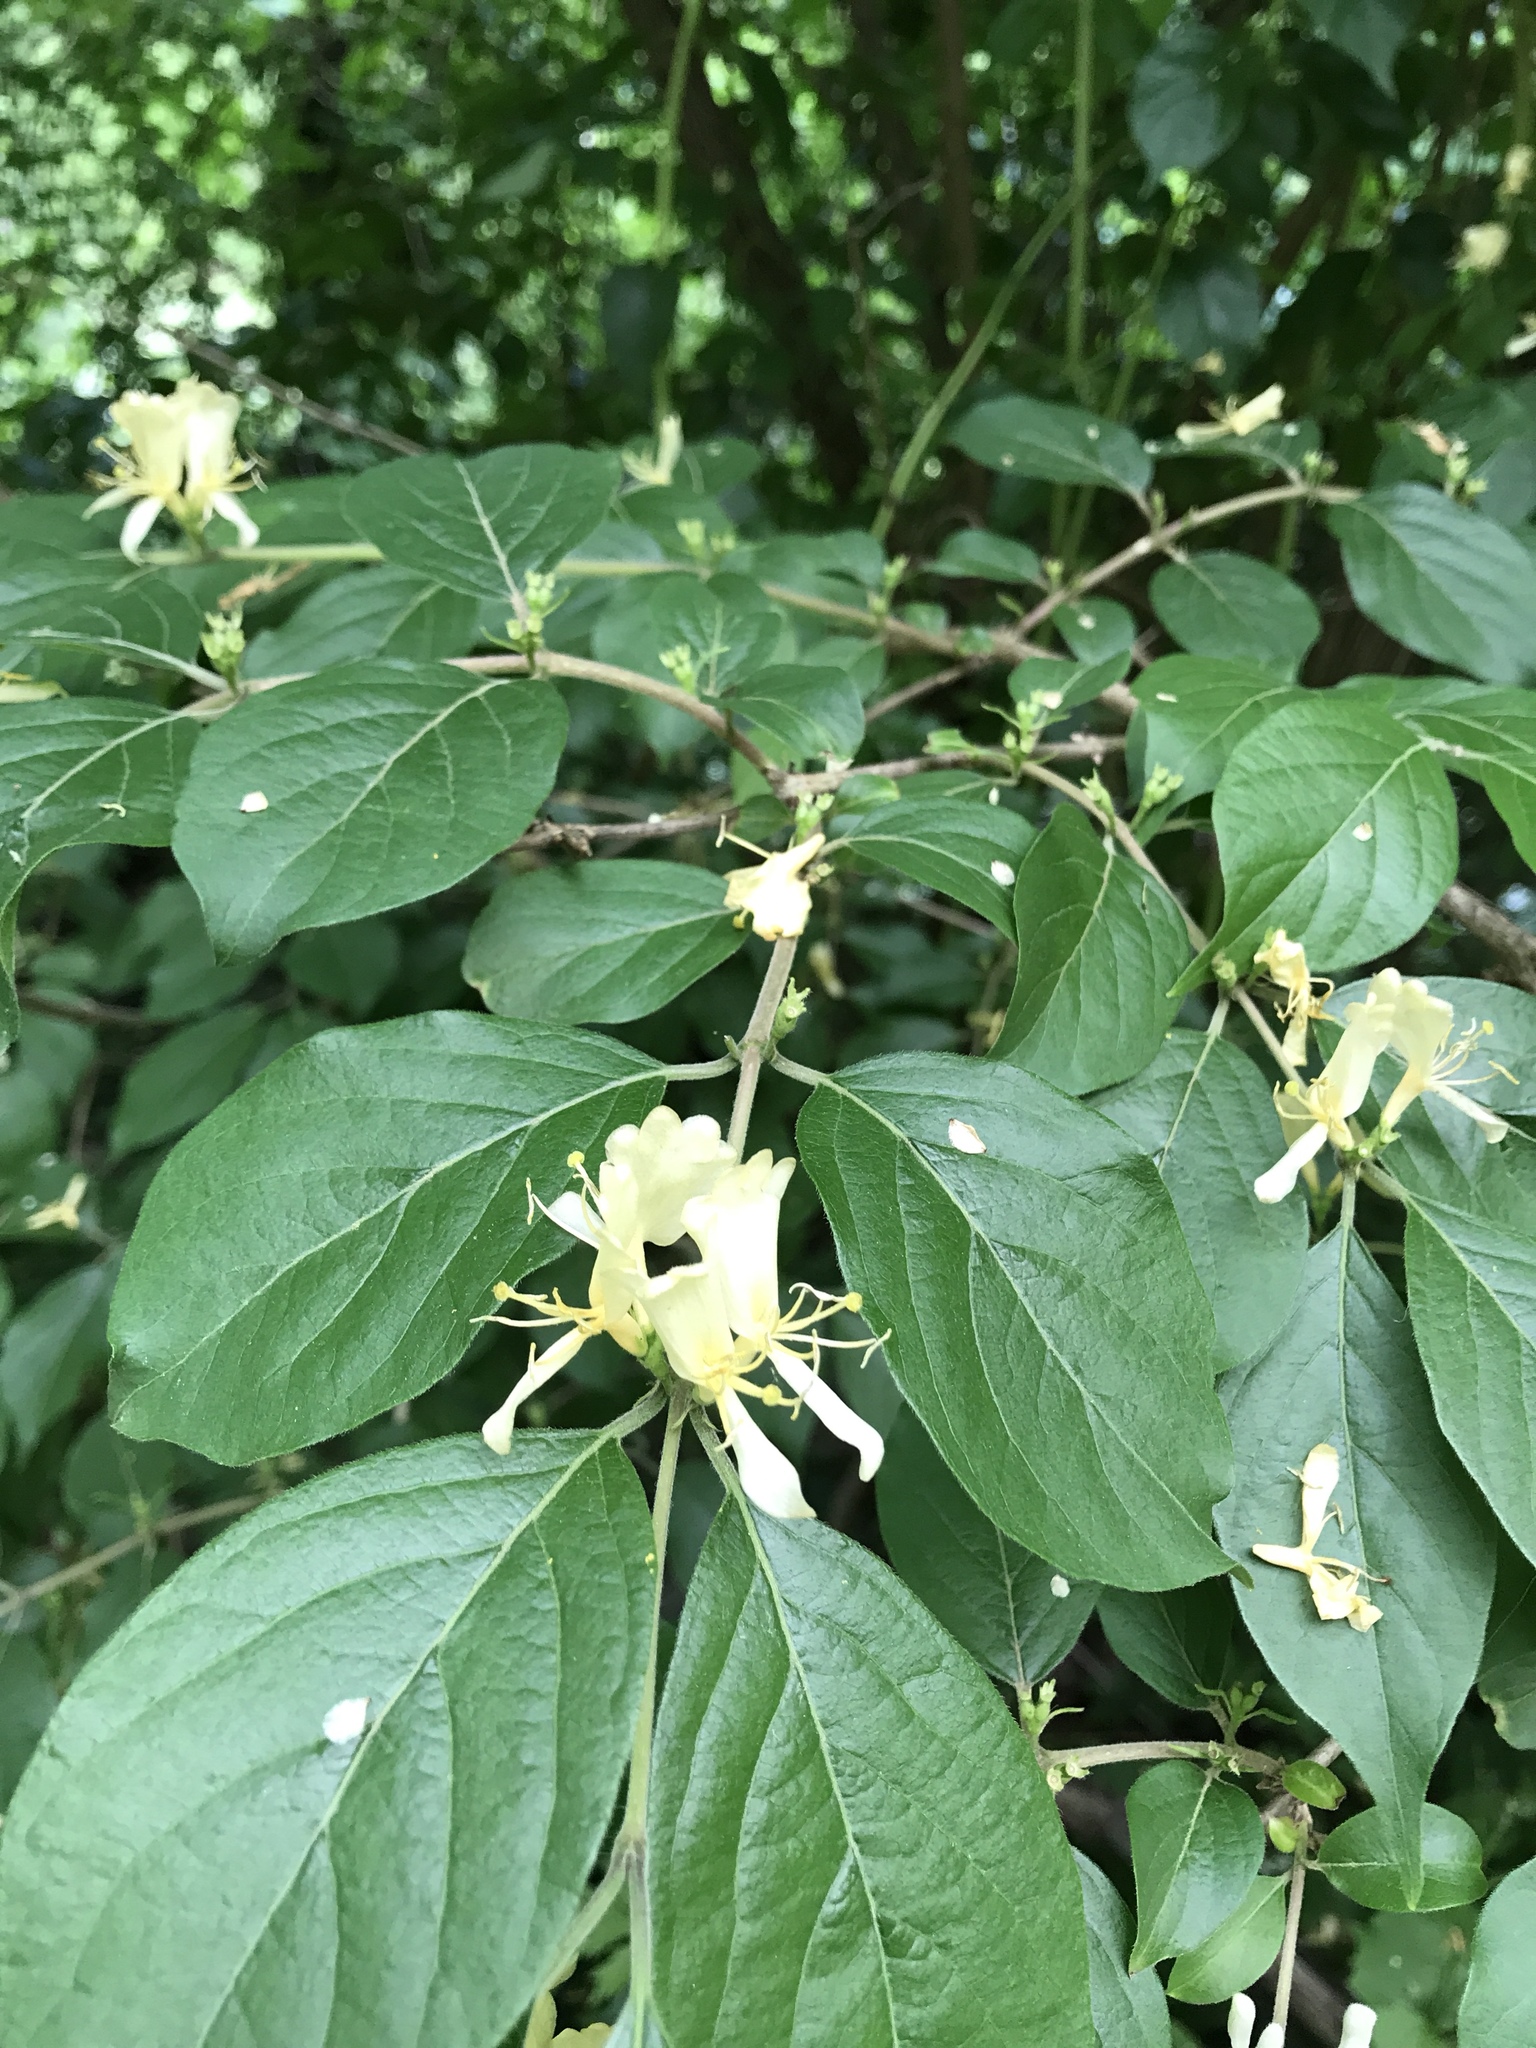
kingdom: Plantae
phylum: Tracheophyta
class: Magnoliopsida
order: Dipsacales
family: Caprifoliaceae
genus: Lonicera
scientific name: Lonicera maackii
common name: Amur honeysuckle
